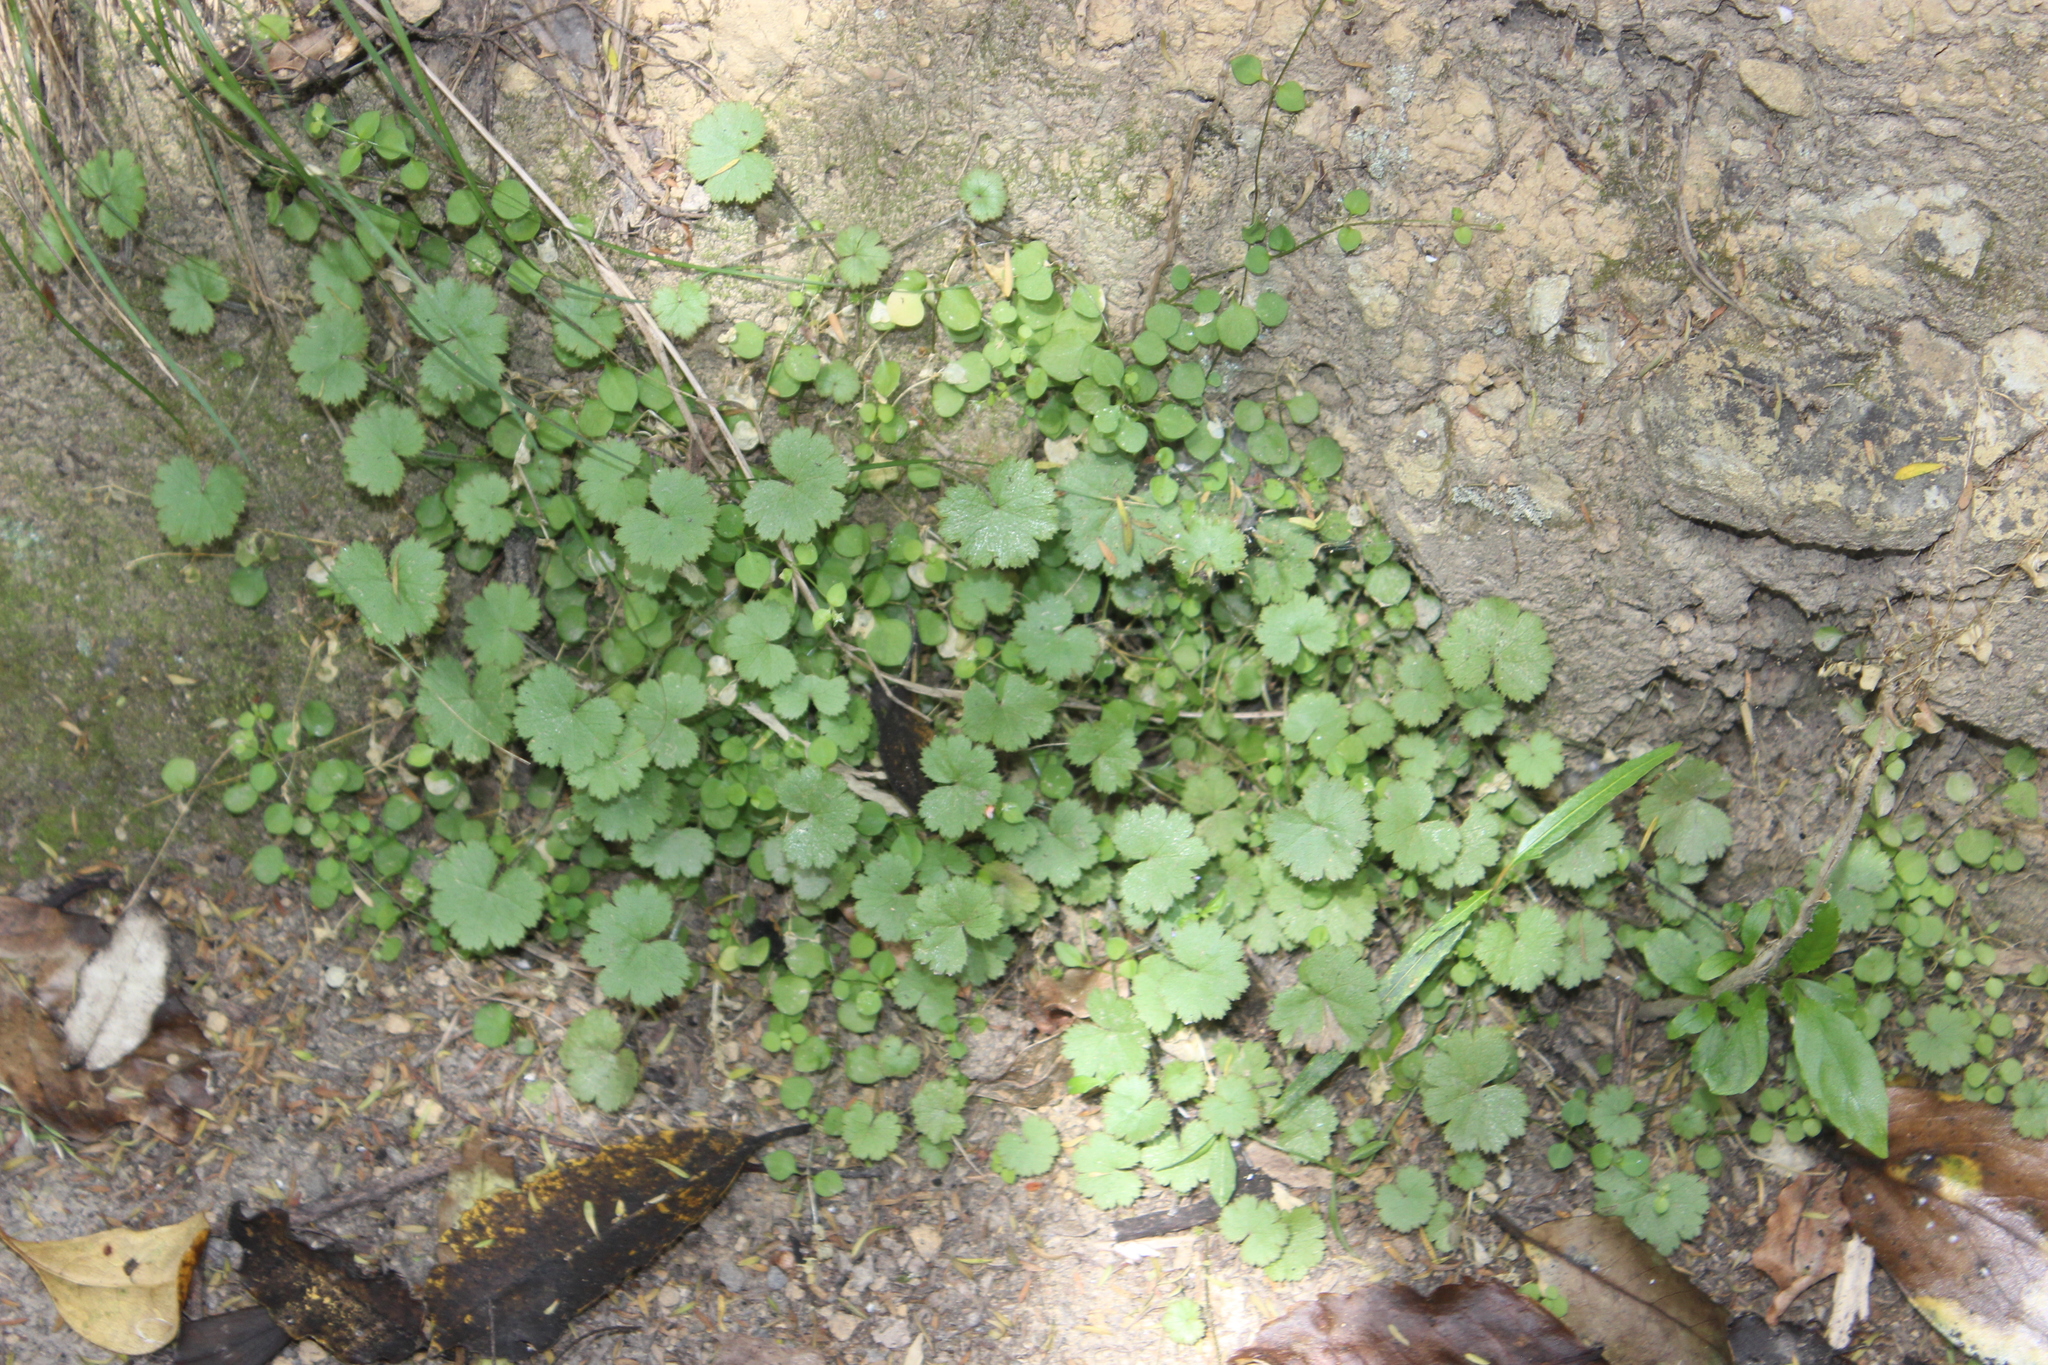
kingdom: Plantae
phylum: Tracheophyta
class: Magnoliopsida
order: Apiales
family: Araliaceae
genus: Hydrocotyle
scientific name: Hydrocotyle moschata
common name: Hairy pennywort
